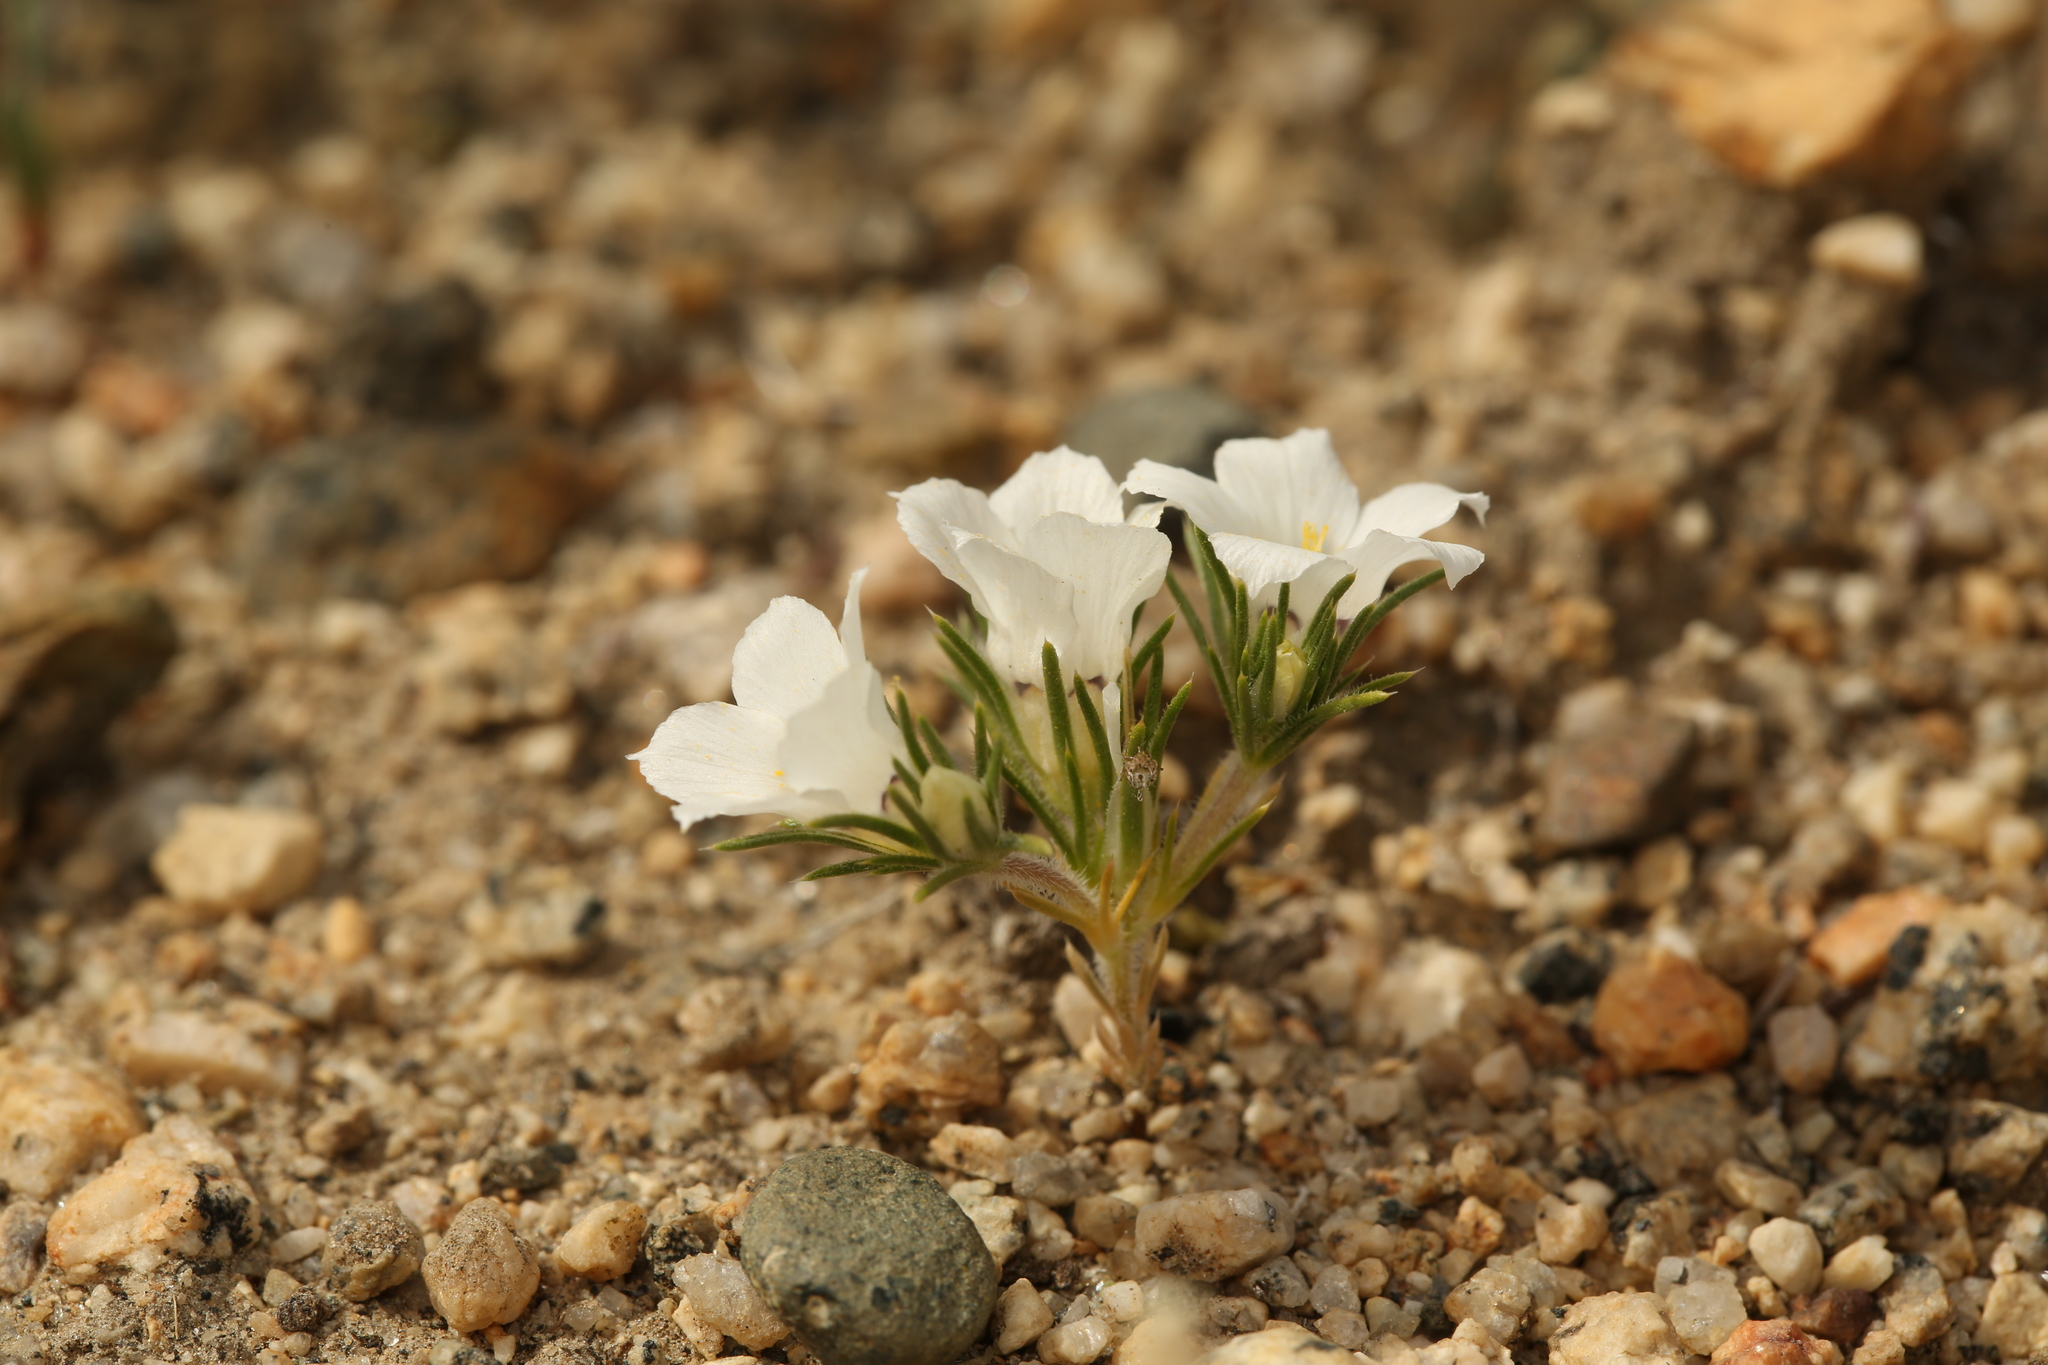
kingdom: Plantae
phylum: Tracheophyta
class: Magnoliopsida
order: Ericales
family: Polemoniaceae
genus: Linanthus
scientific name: Linanthus parryae
